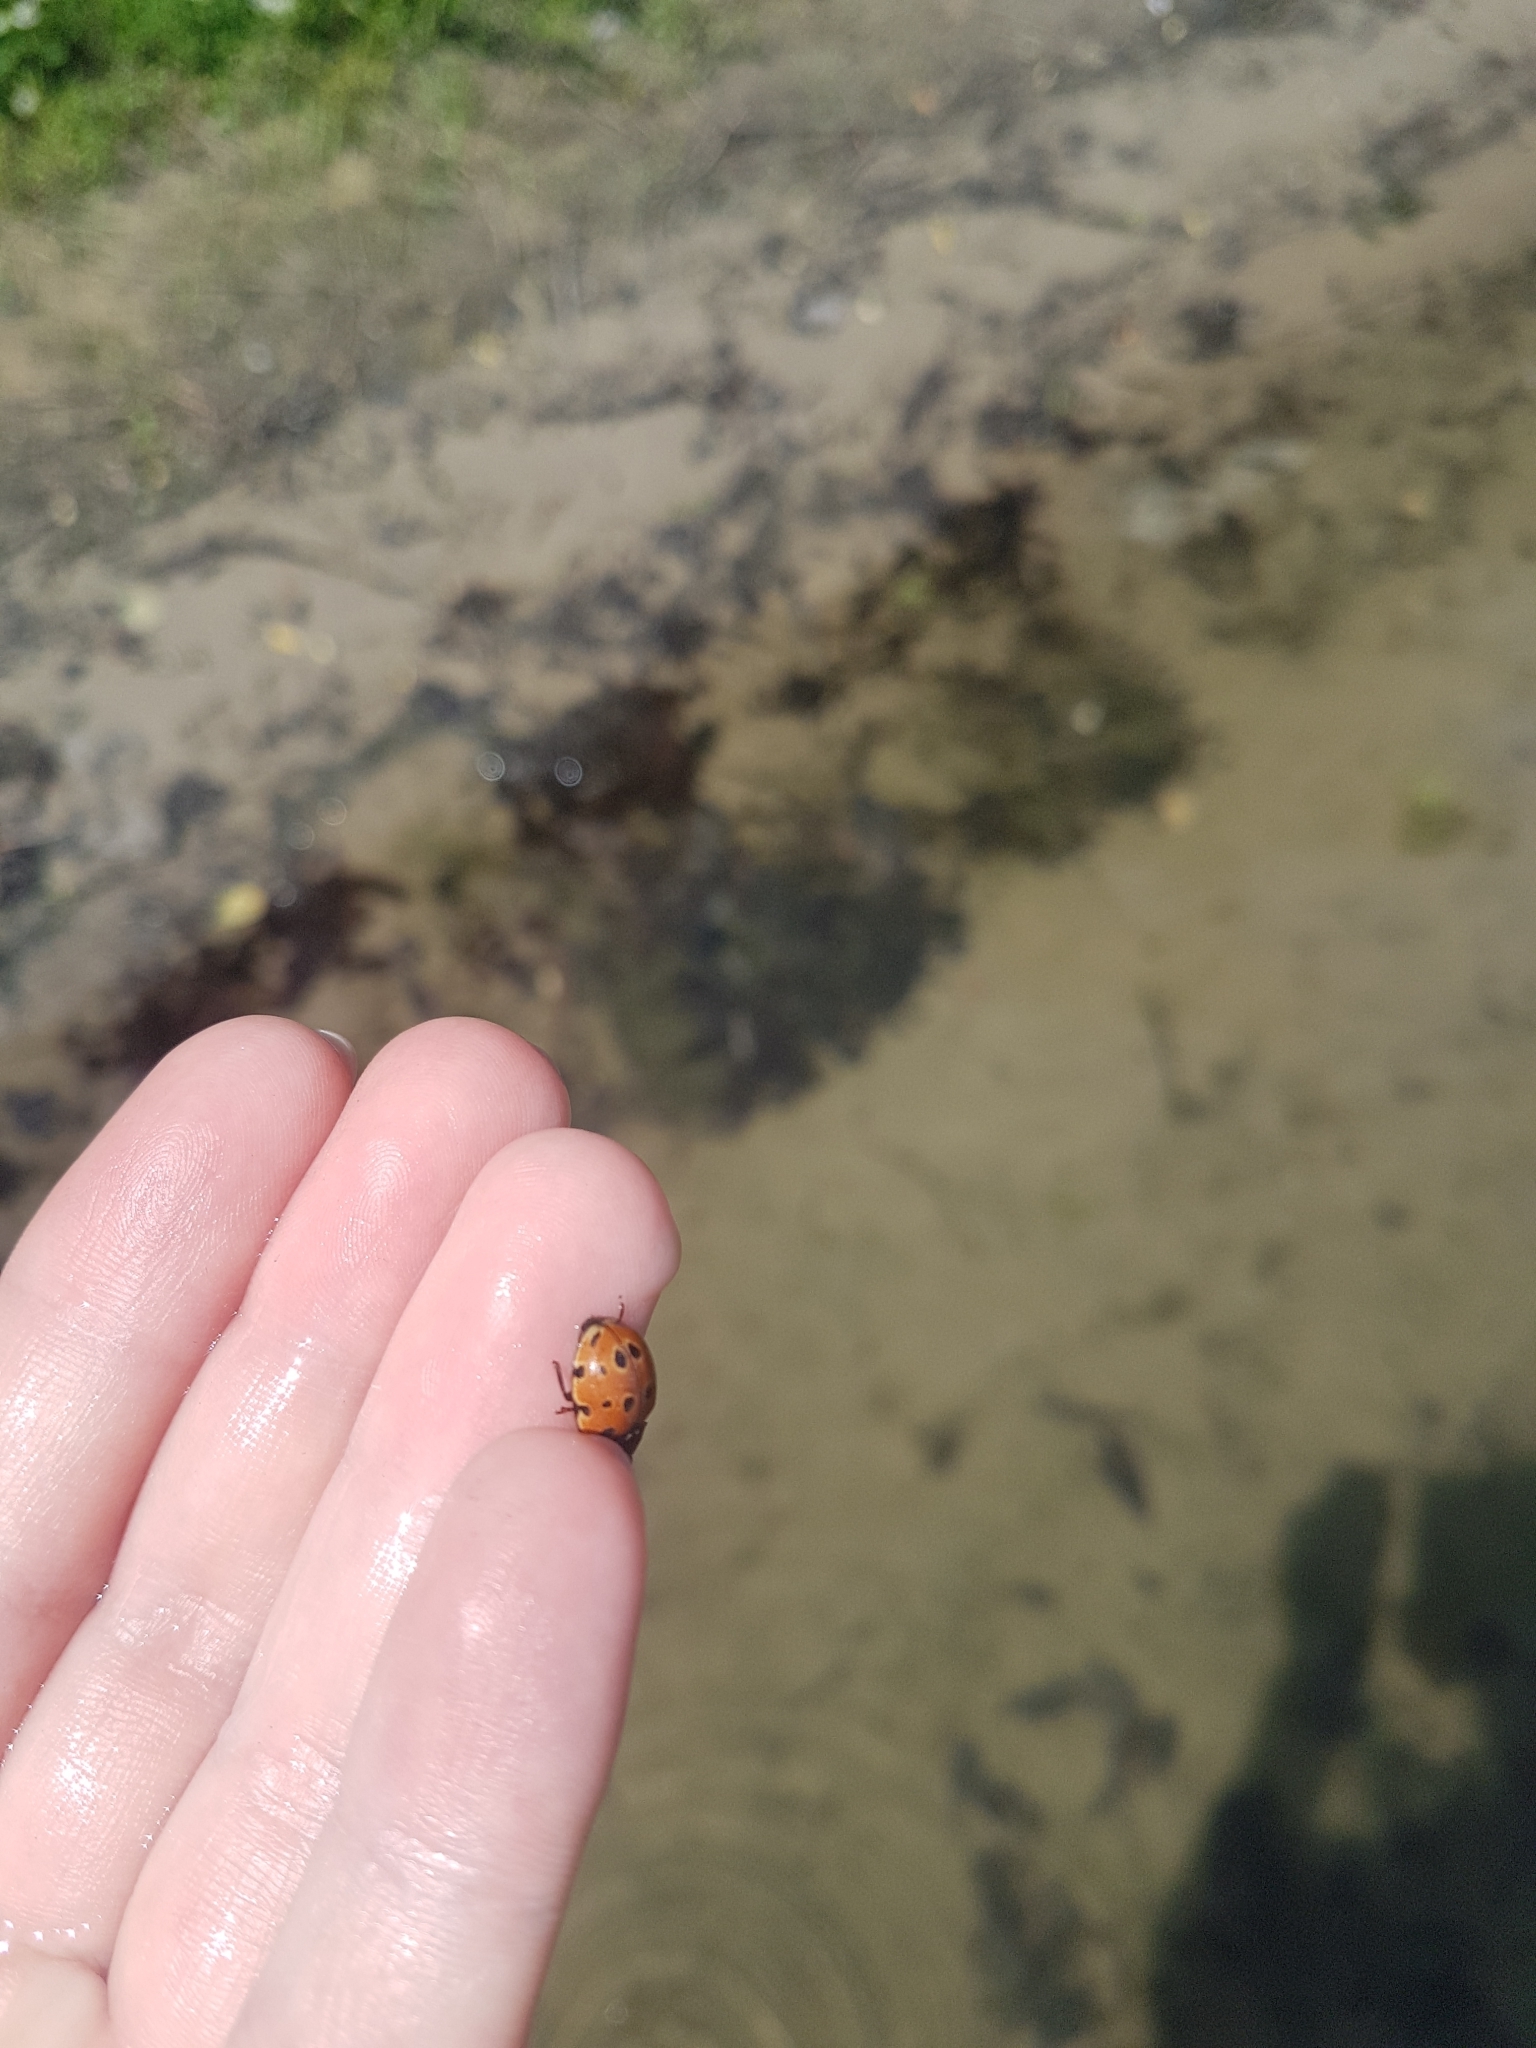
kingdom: Animalia
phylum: Arthropoda
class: Insecta
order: Coleoptera
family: Coccinellidae
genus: Anatis
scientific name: Anatis ocellata
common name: Eyed ladybird
